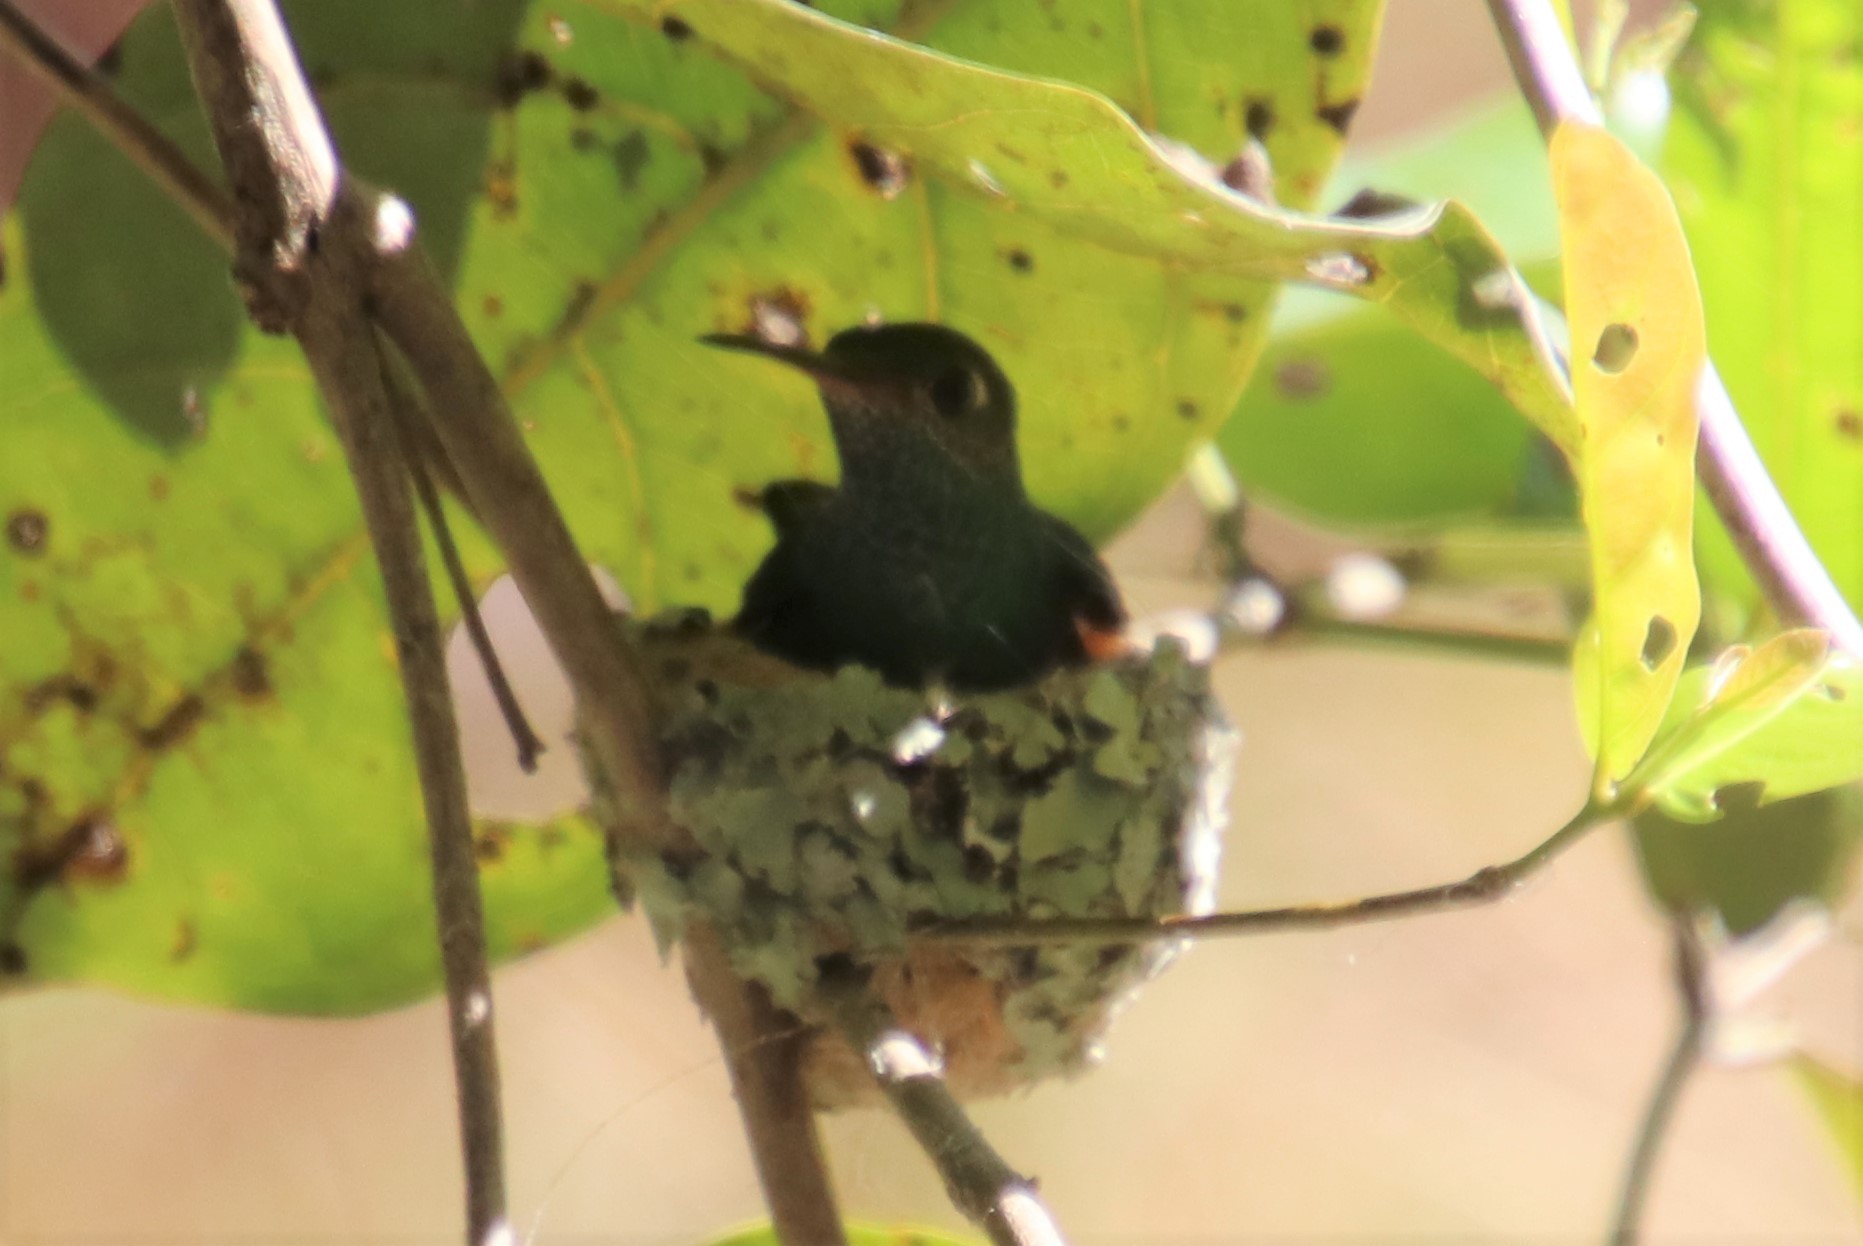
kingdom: Animalia
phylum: Chordata
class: Aves
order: Apodiformes
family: Trochilidae
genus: Chionomesa
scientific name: Chionomesa fimbriata
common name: Glittering-throated emerald
